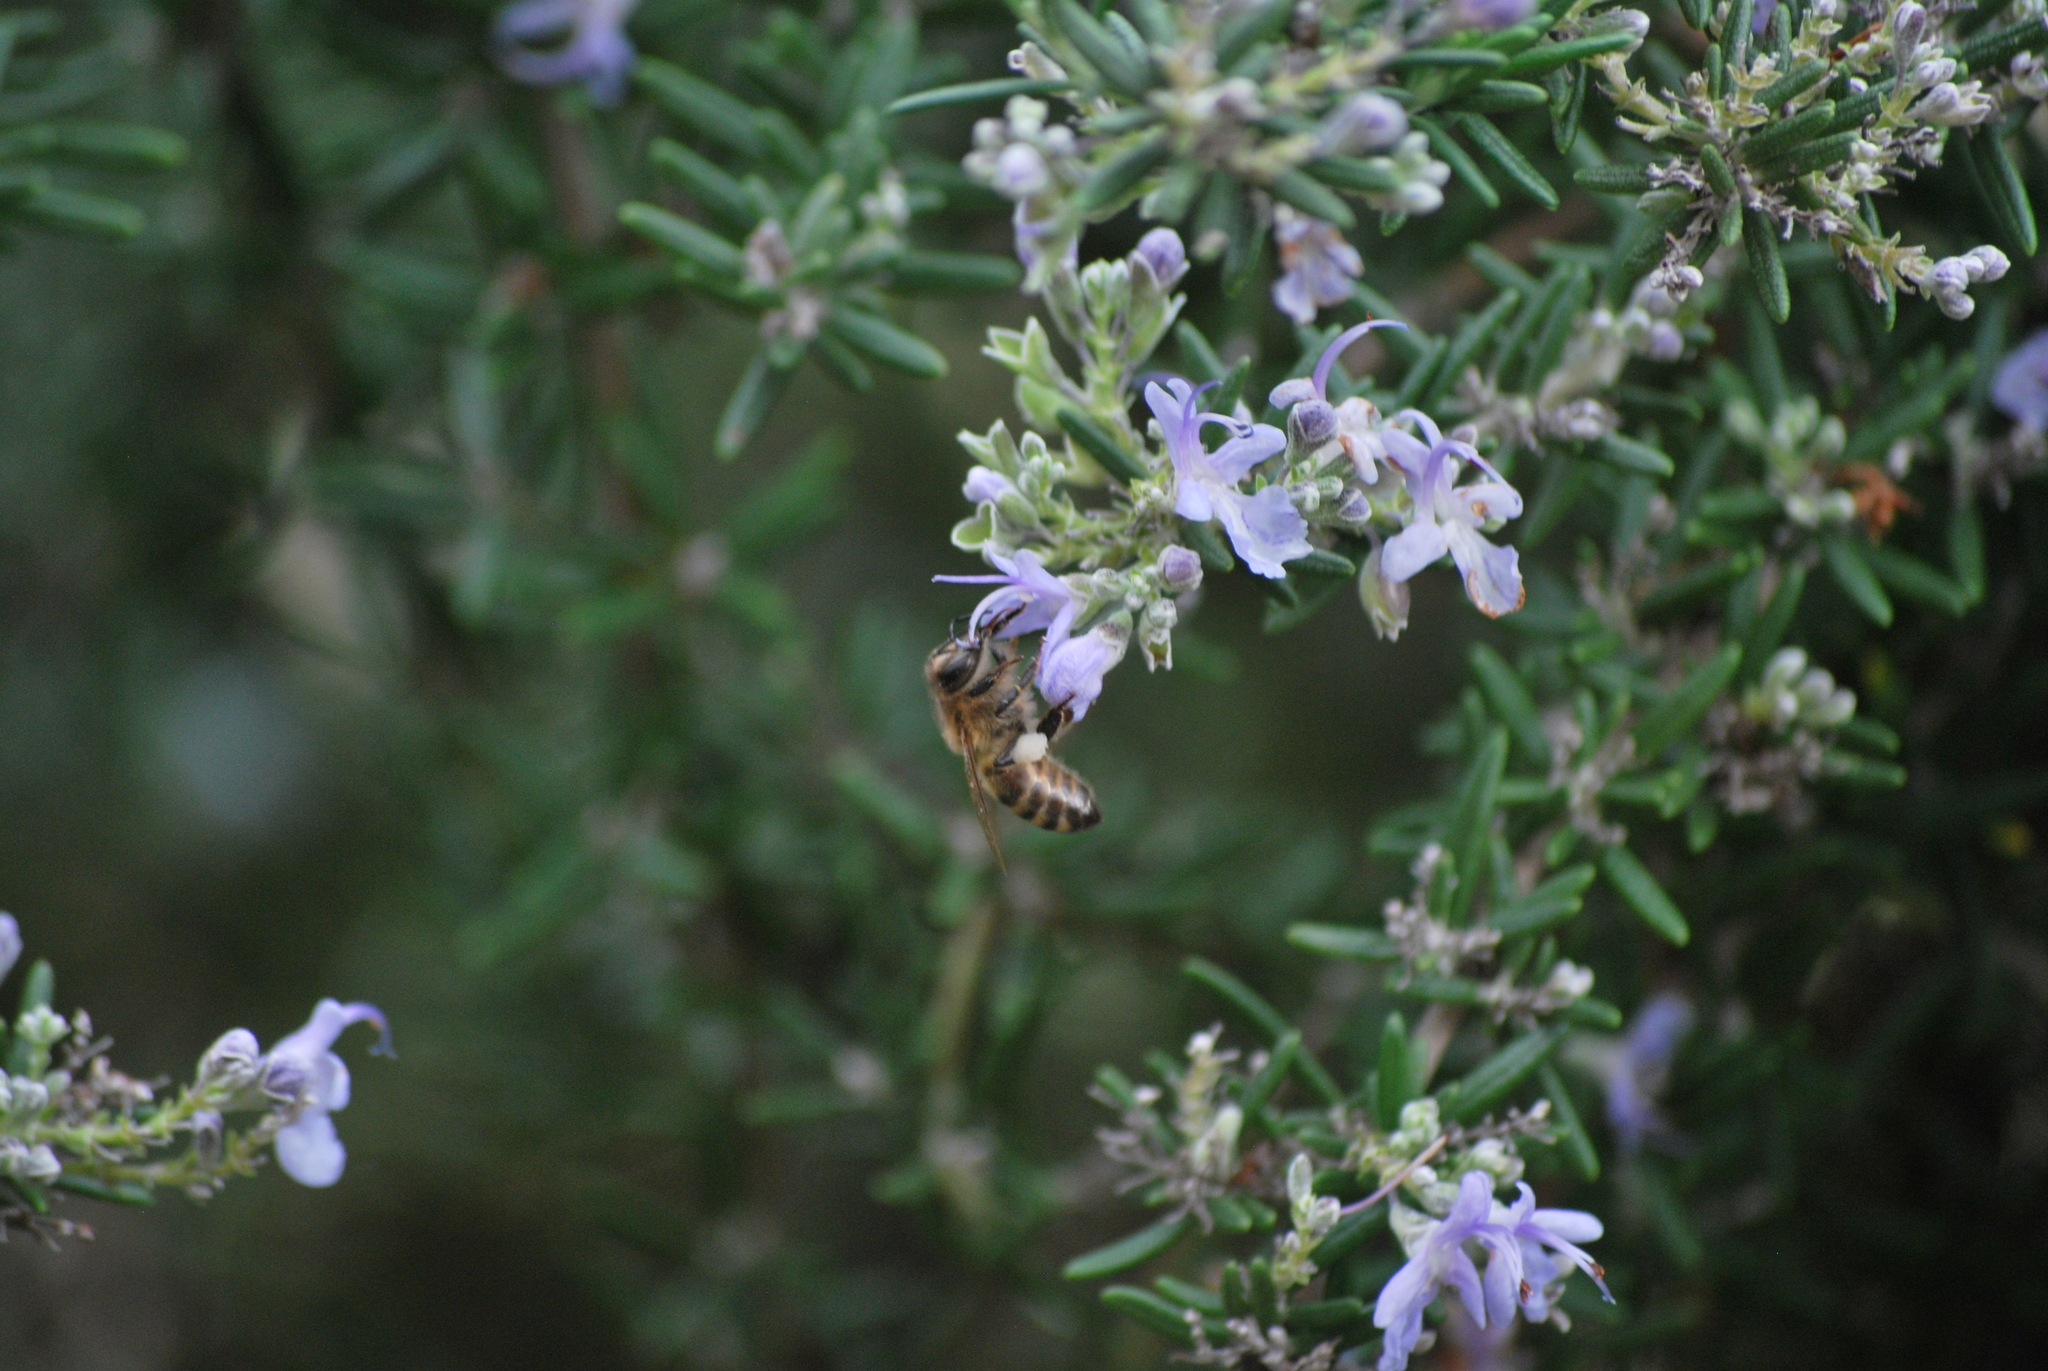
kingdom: Animalia
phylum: Arthropoda
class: Insecta
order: Hymenoptera
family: Apidae
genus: Apis
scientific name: Apis mellifera
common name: Honey bee
